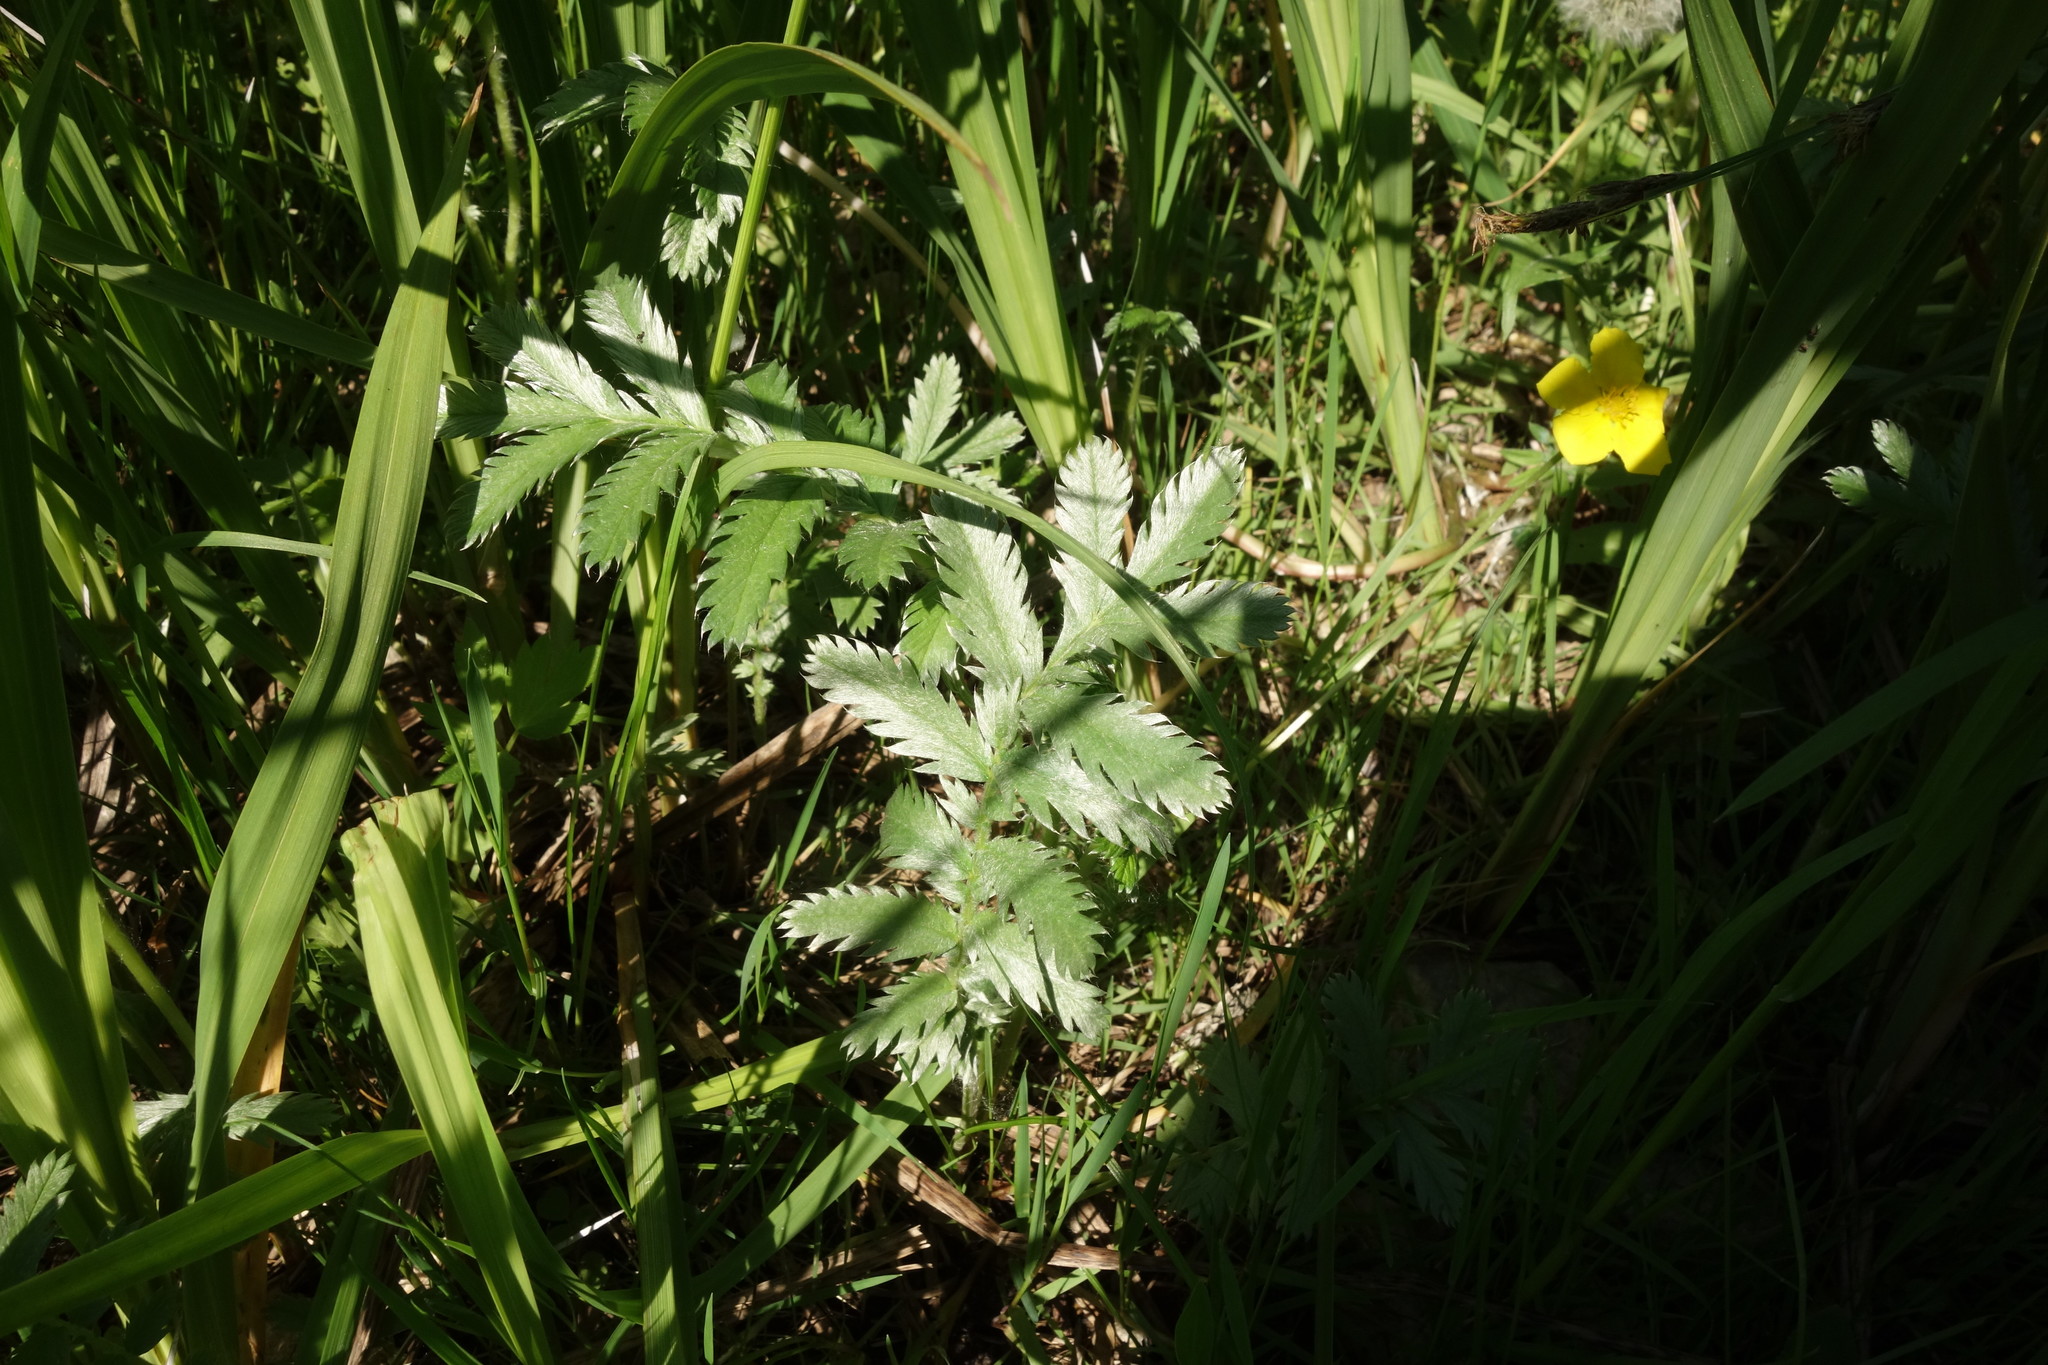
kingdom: Plantae
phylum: Tracheophyta
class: Magnoliopsida
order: Rosales
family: Rosaceae
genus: Argentina
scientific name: Argentina anserina
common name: Common silverweed
